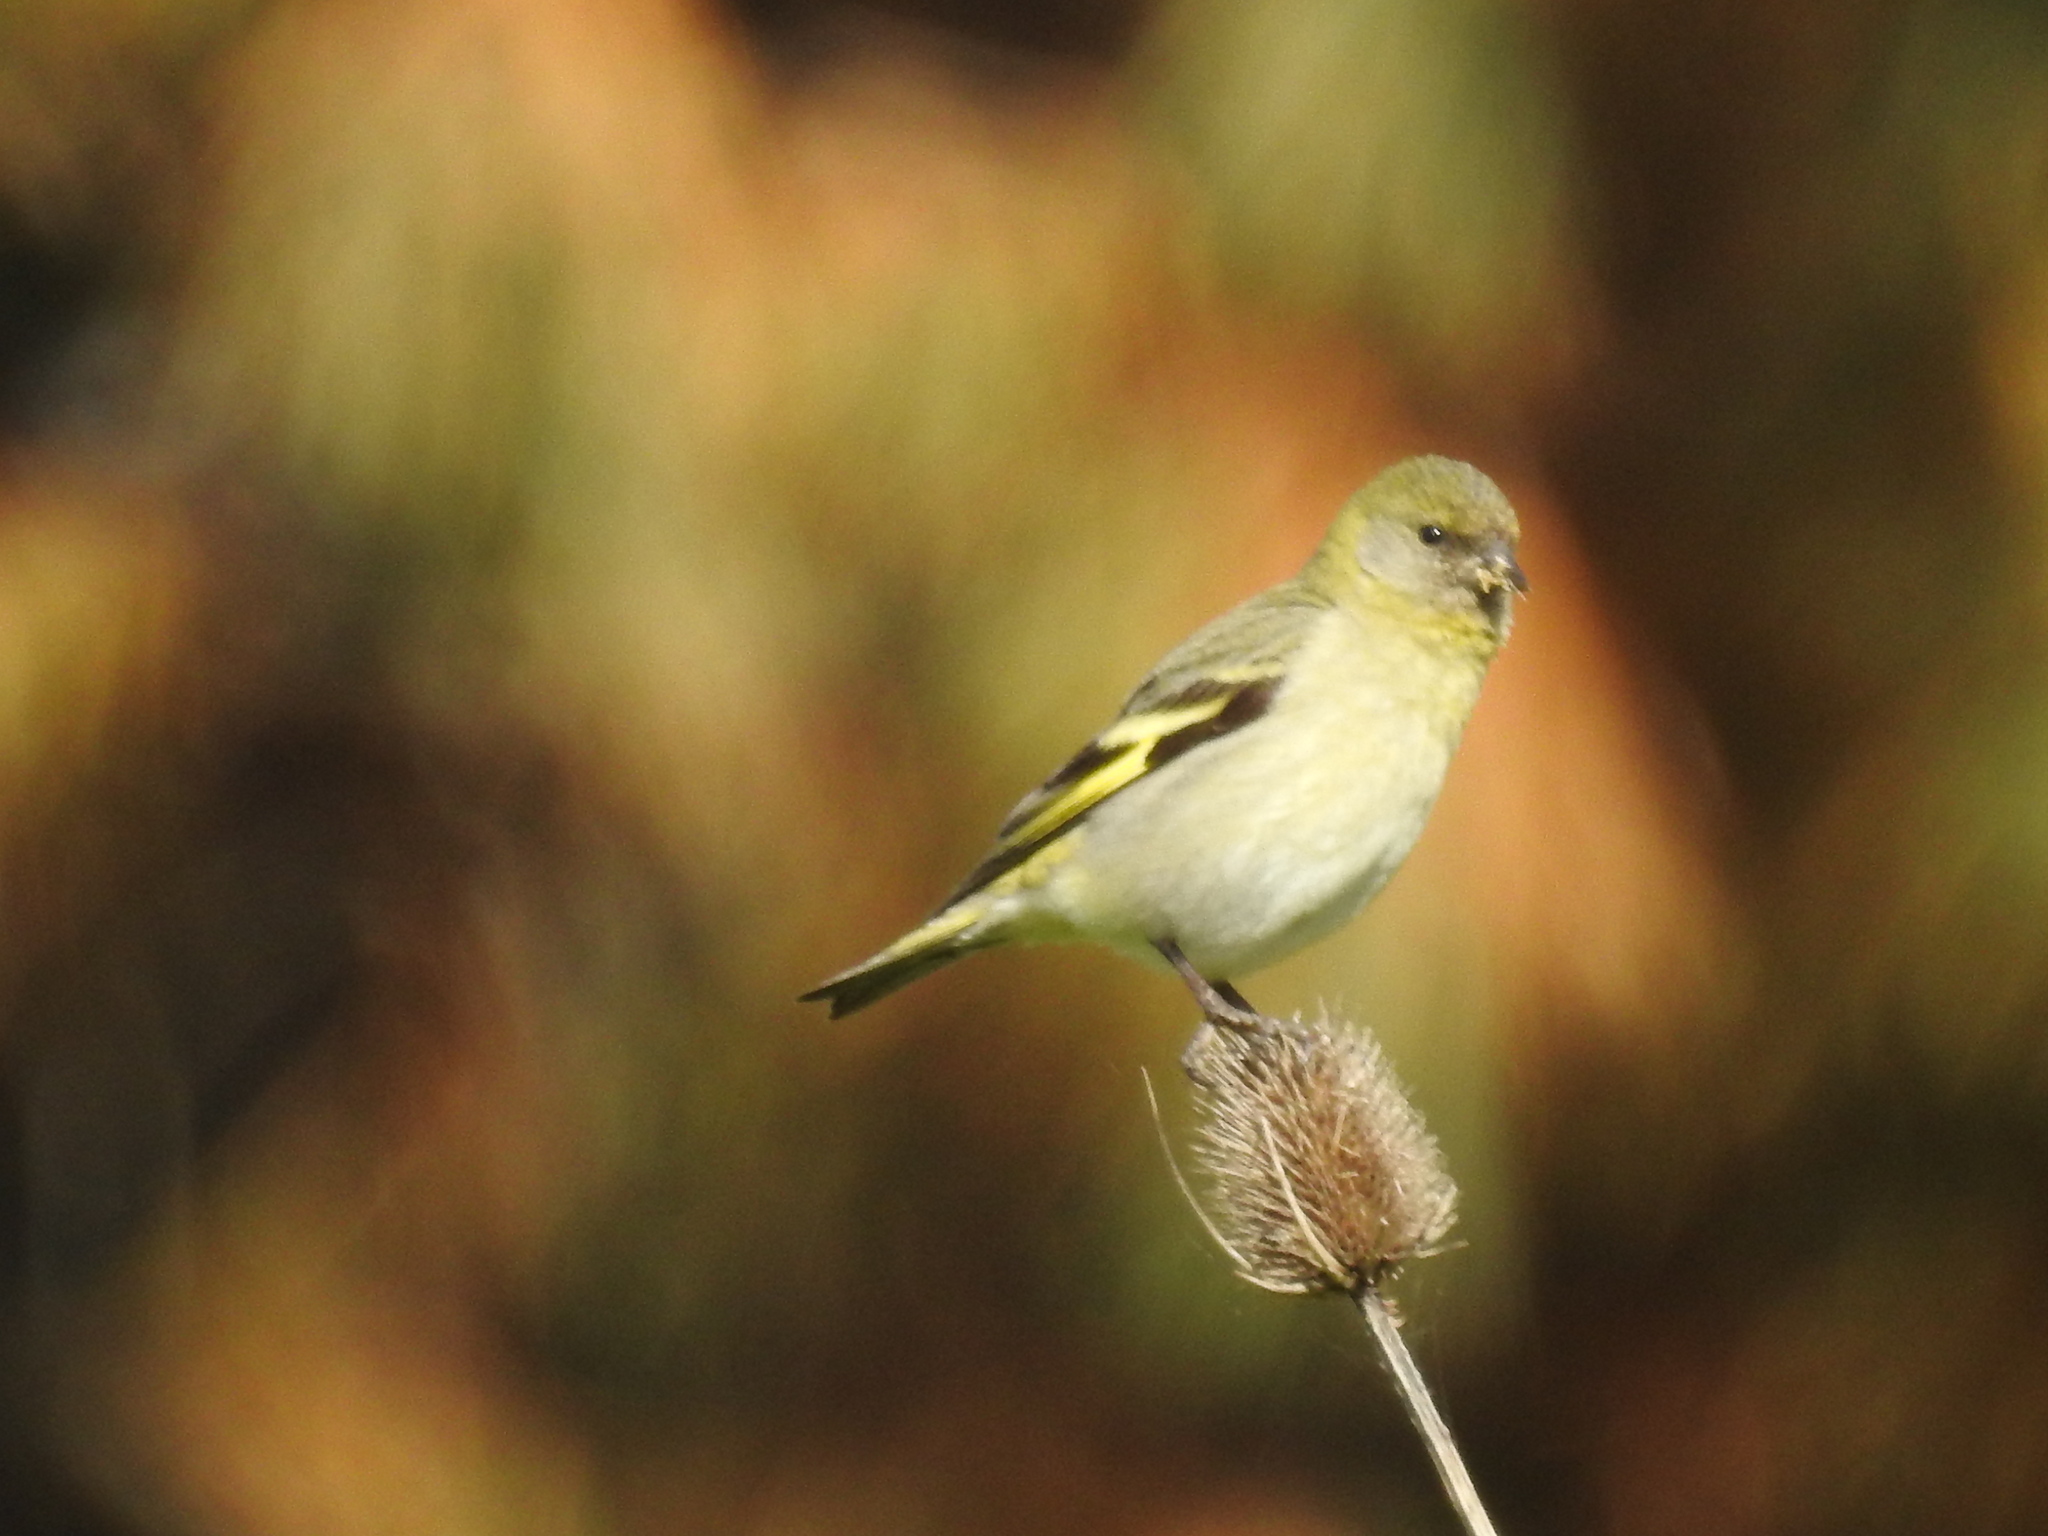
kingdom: Animalia
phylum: Chordata
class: Aves
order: Passeriformes
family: Fringillidae
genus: Spinus
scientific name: Spinus magellanicus
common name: Hooded siskin
